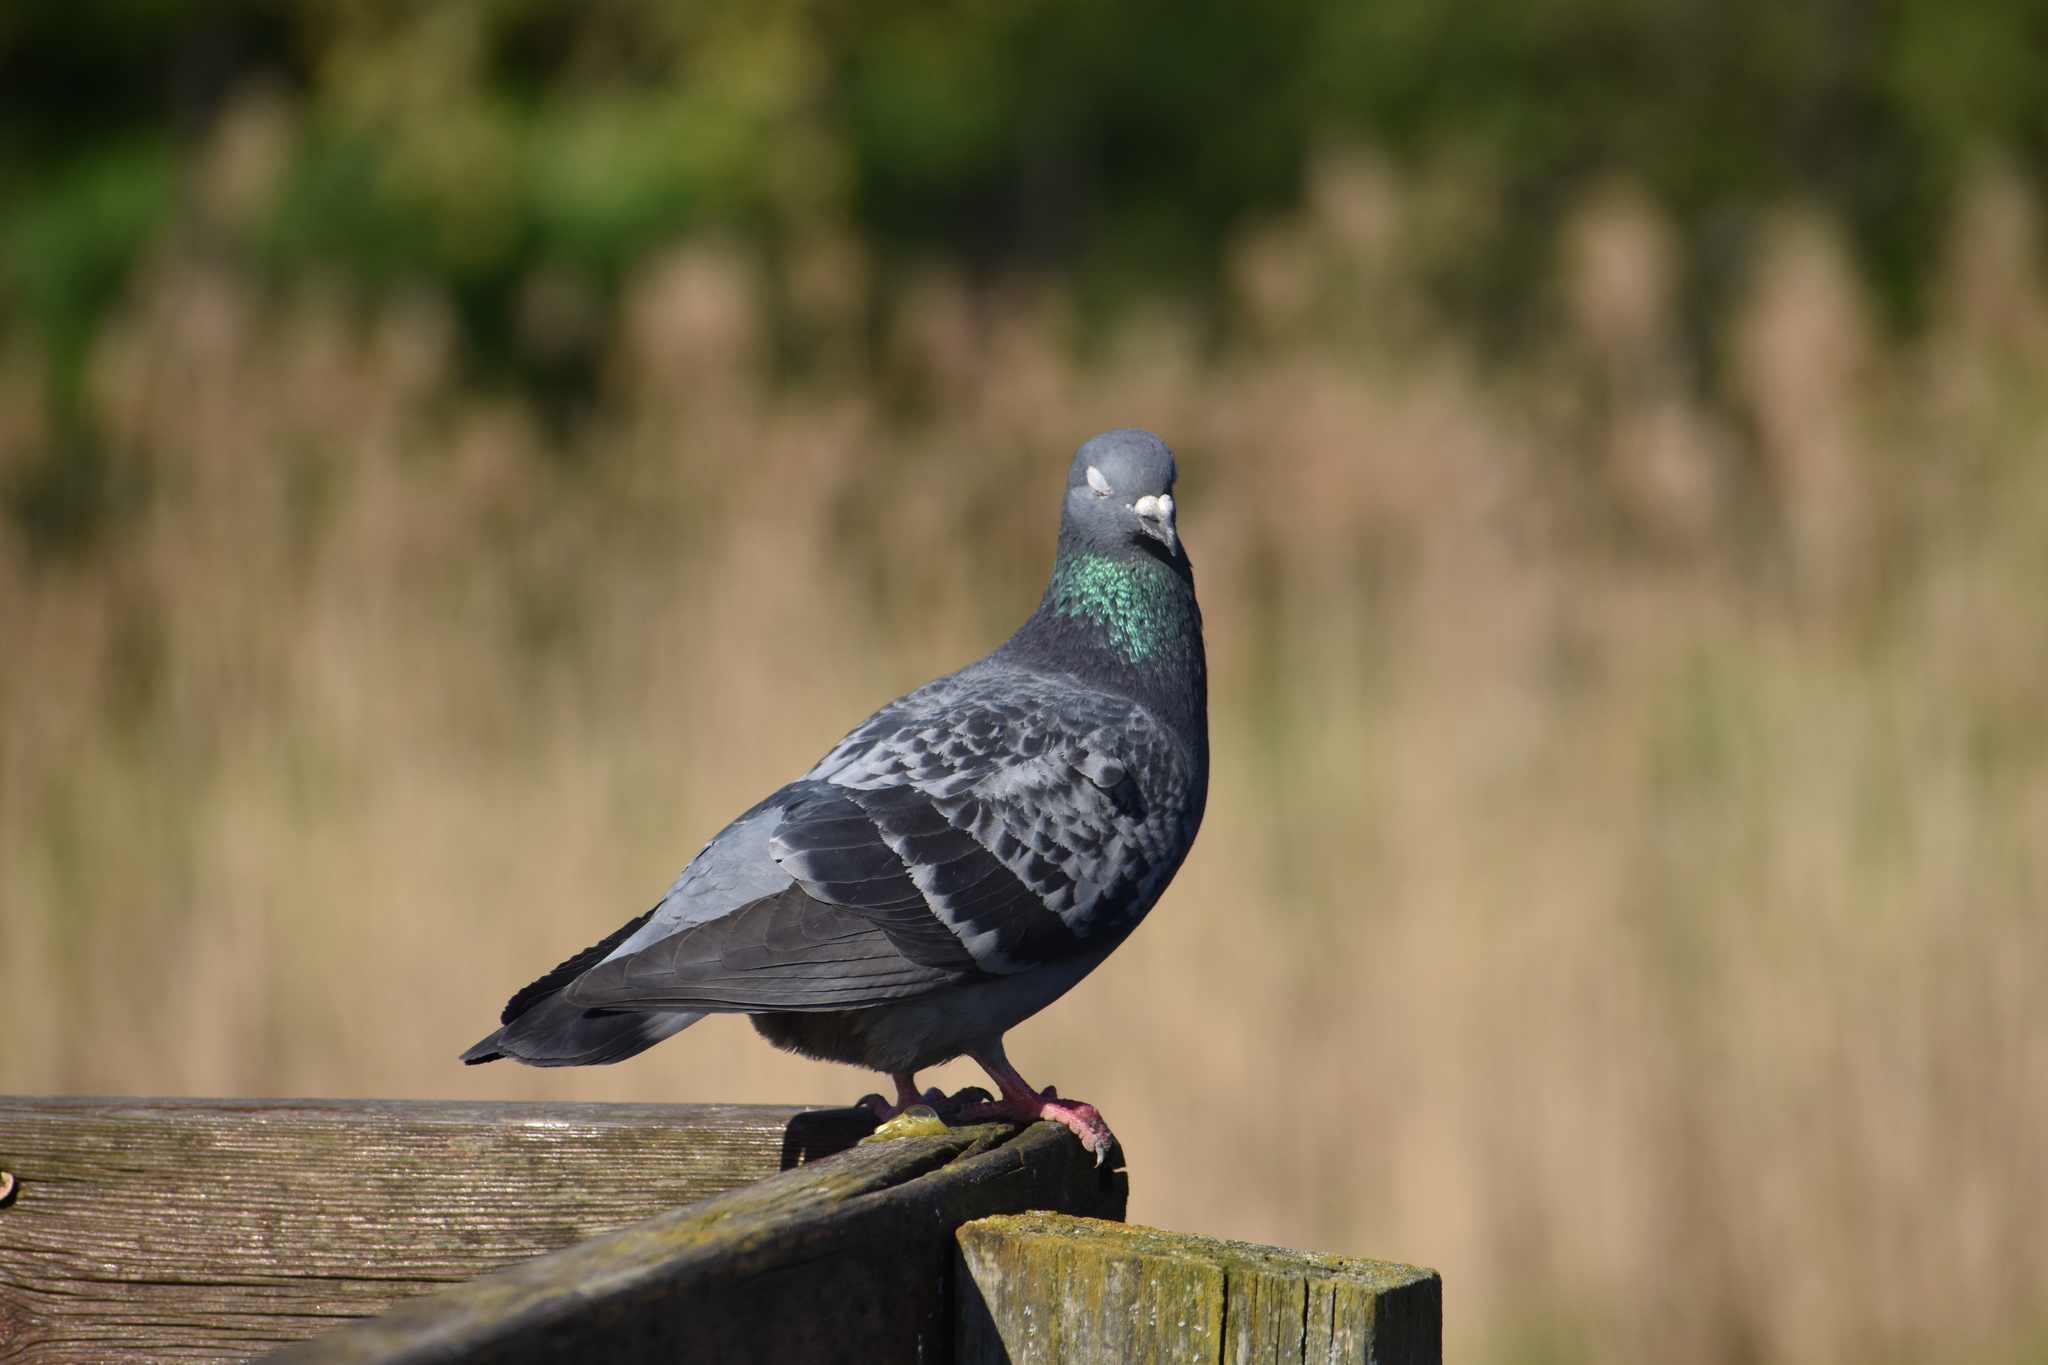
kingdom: Animalia
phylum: Chordata
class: Aves
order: Columbiformes
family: Columbidae
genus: Columba
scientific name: Columba livia
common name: Rock pigeon
